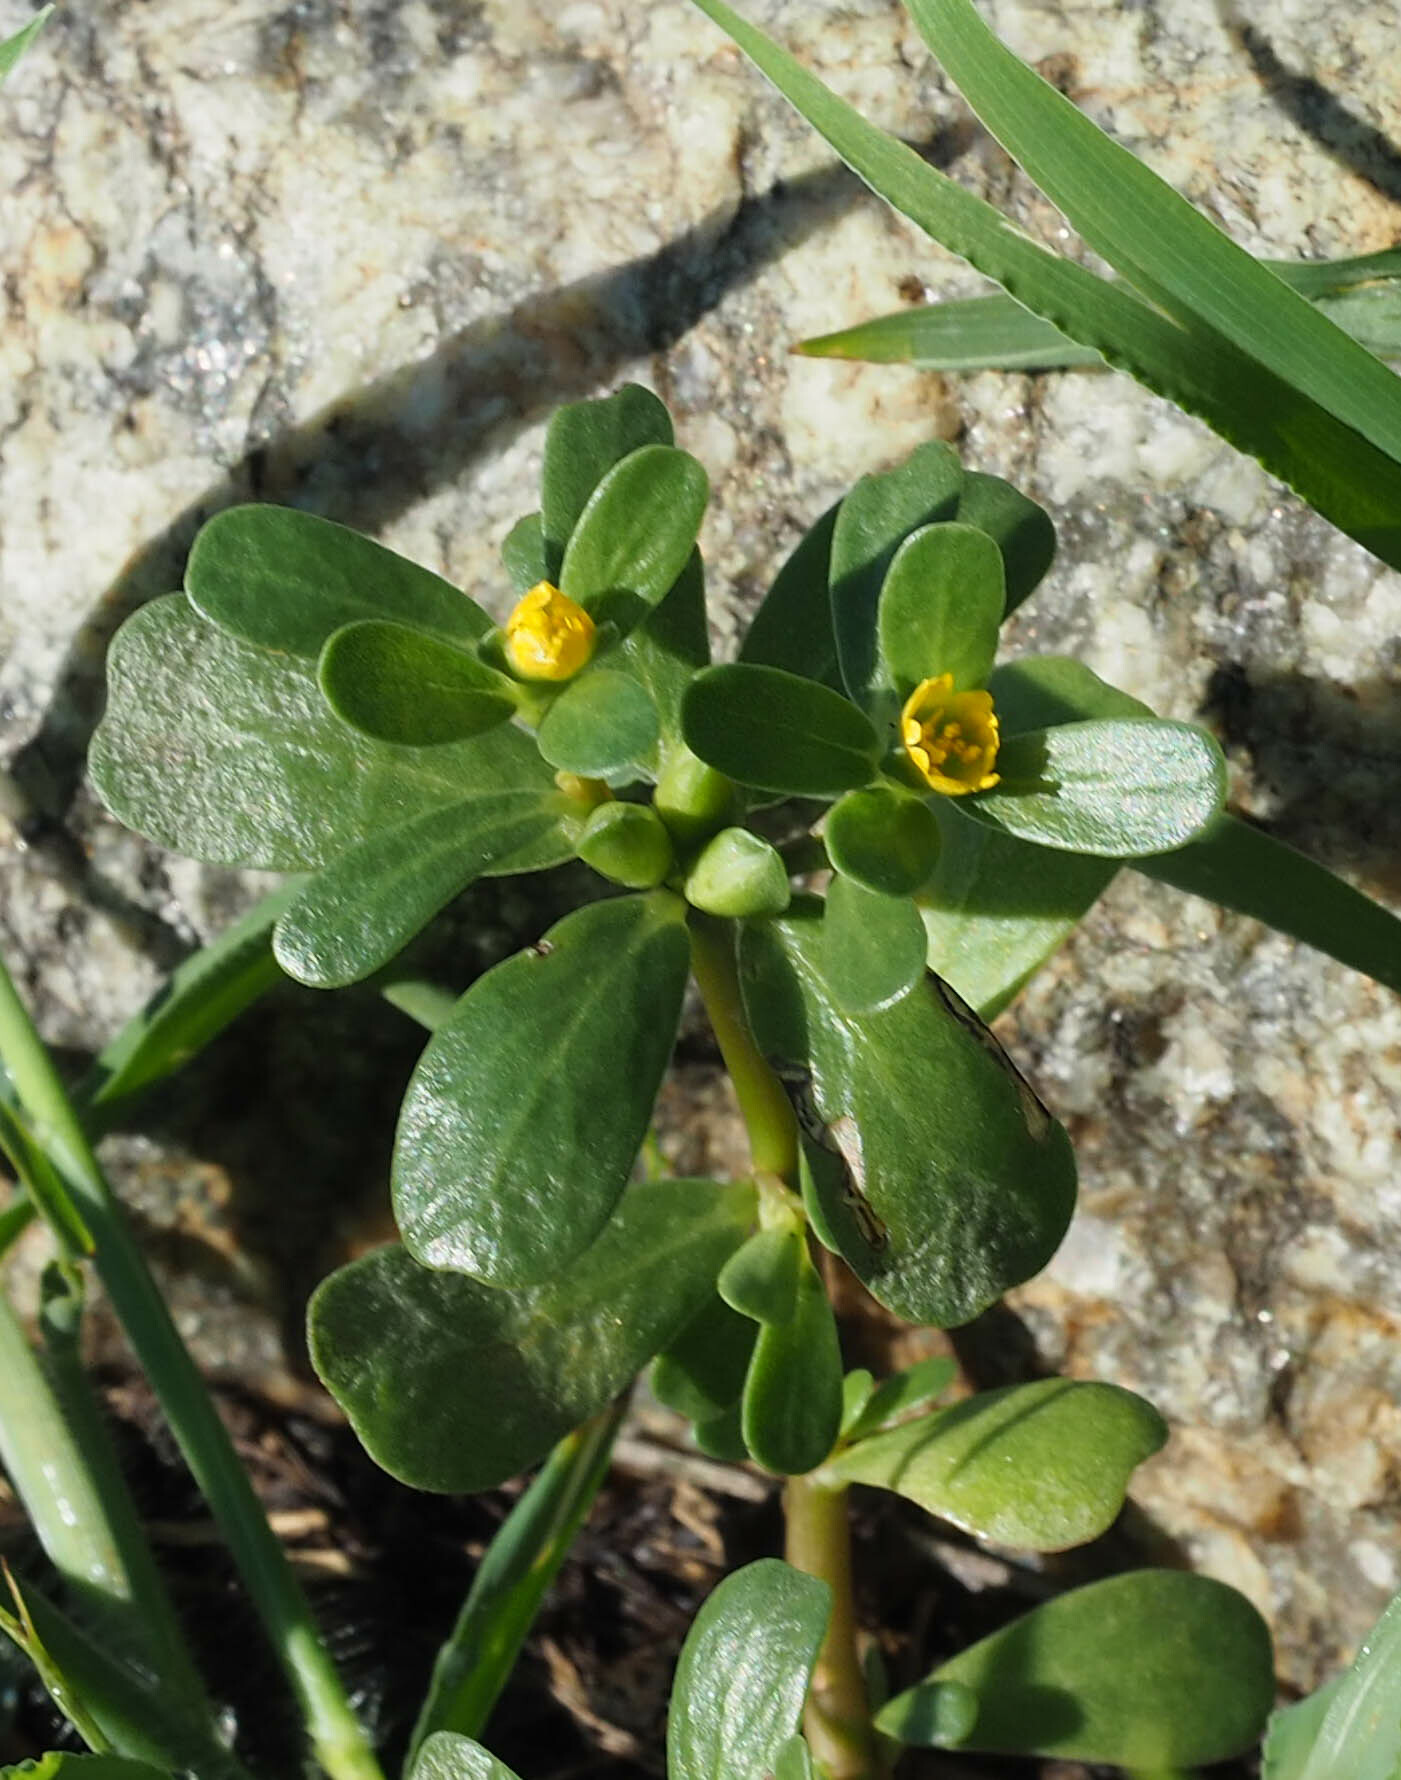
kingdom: Plantae
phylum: Tracheophyta
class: Magnoliopsida
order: Caryophyllales
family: Portulacaceae
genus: Portulaca
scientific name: Portulaca oleracea
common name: Common purslane
